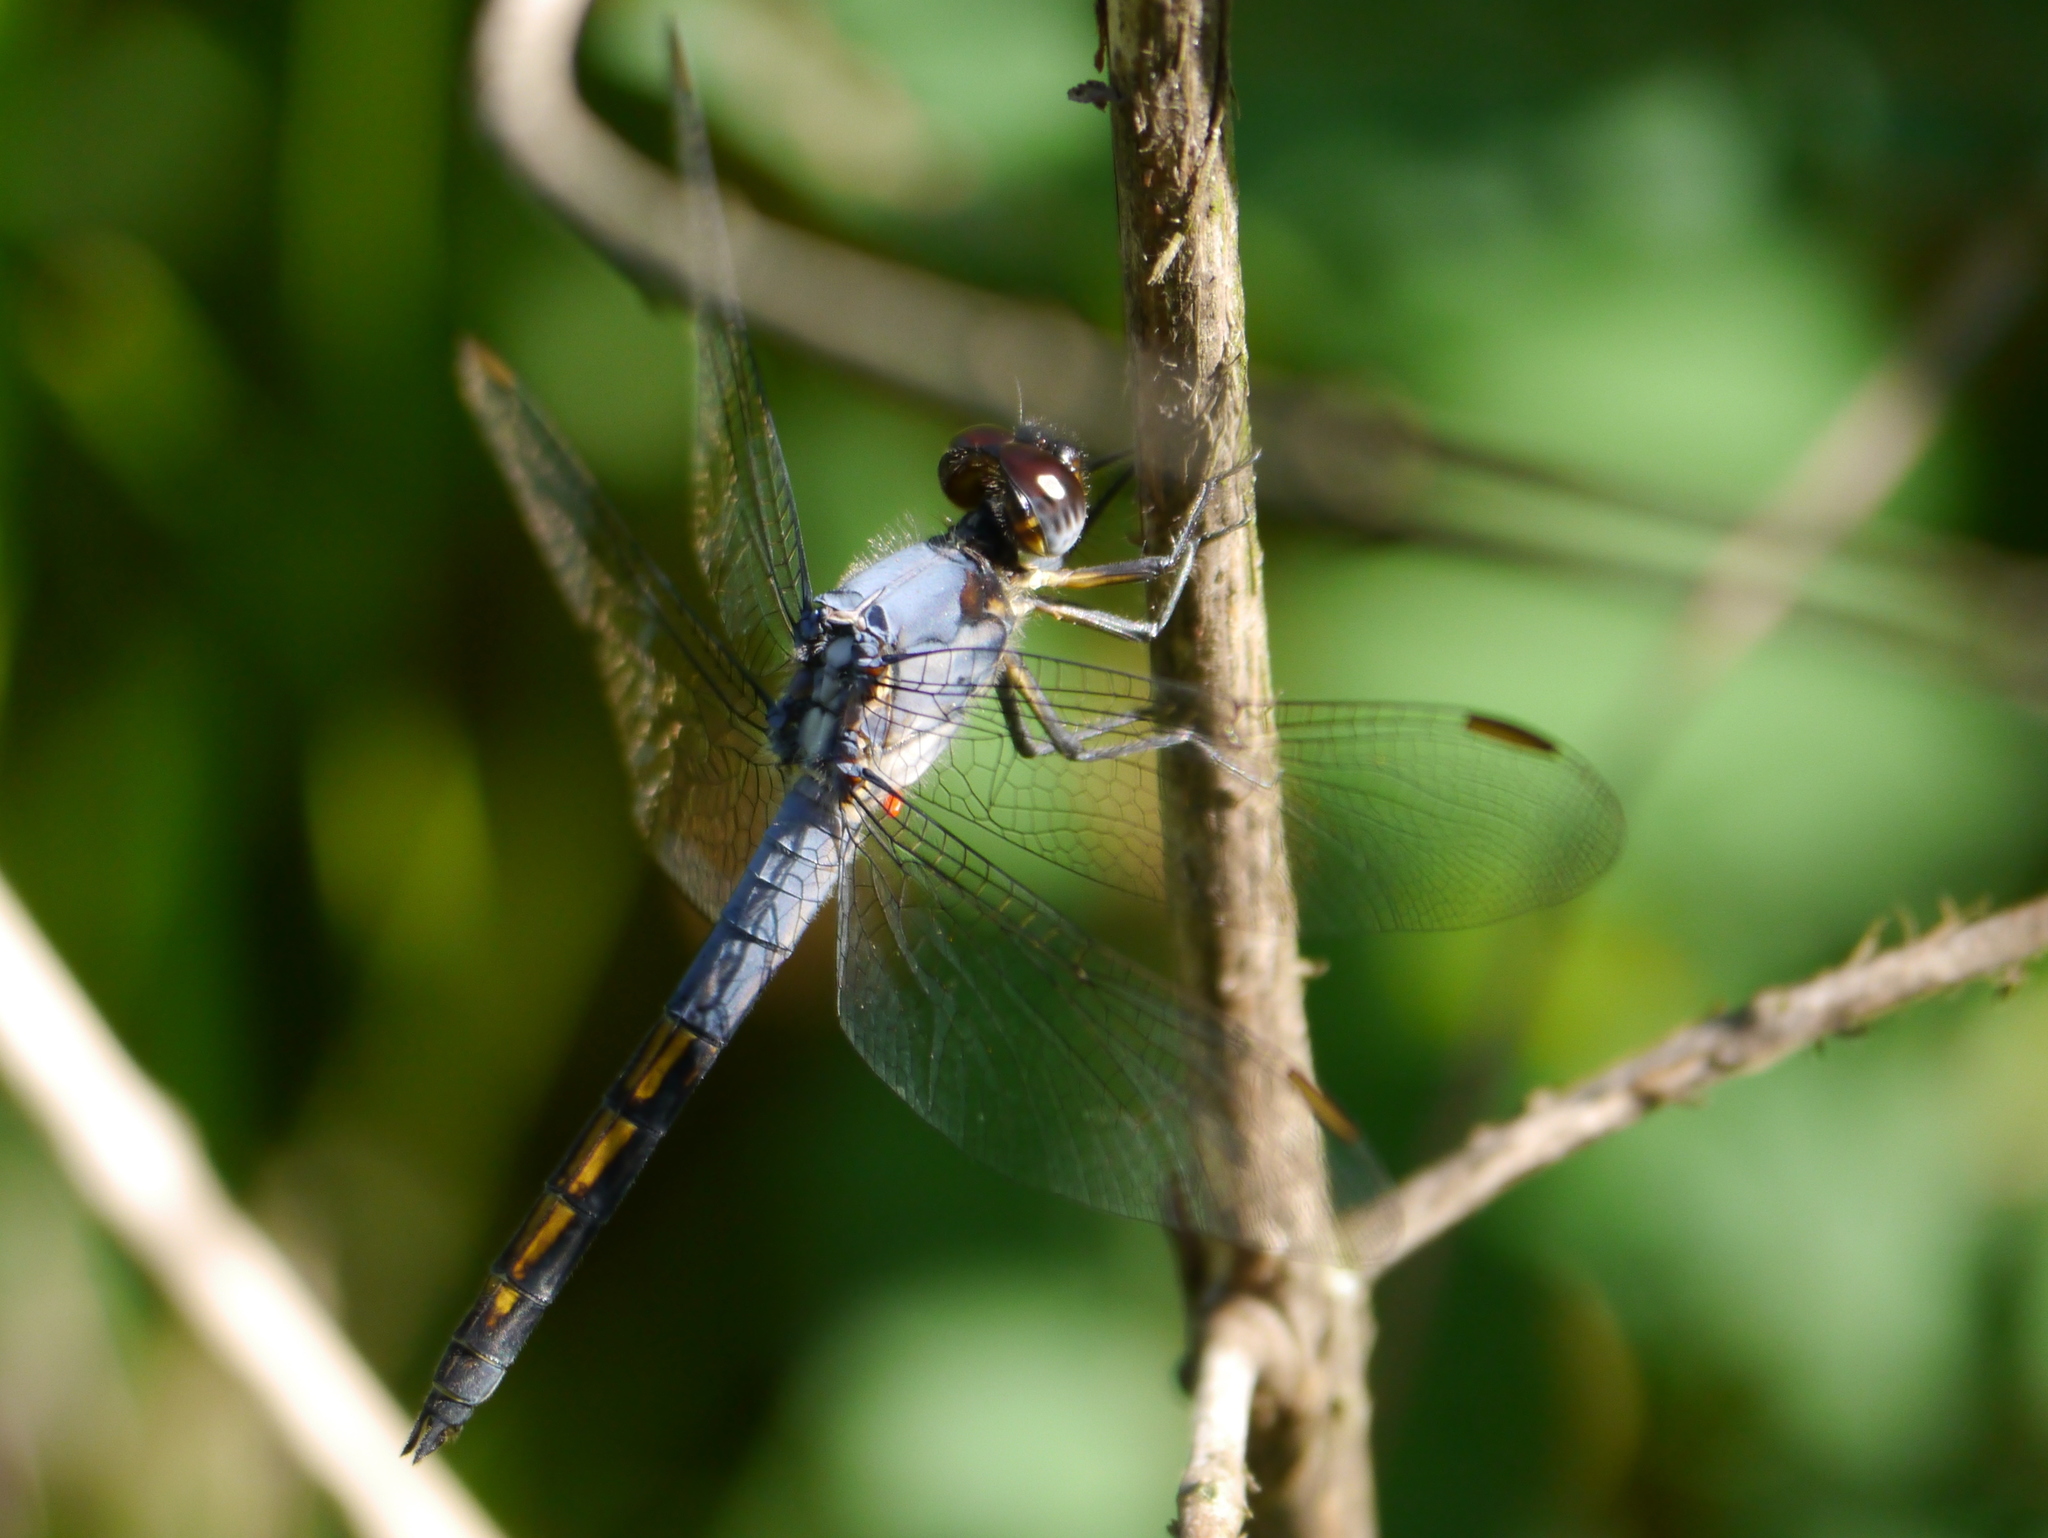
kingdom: Animalia
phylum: Arthropoda
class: Insecta
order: Odonata
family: Libellulidae
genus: Nesciothemis
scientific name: Nesciothemis farinosa
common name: Eastern blacktail
